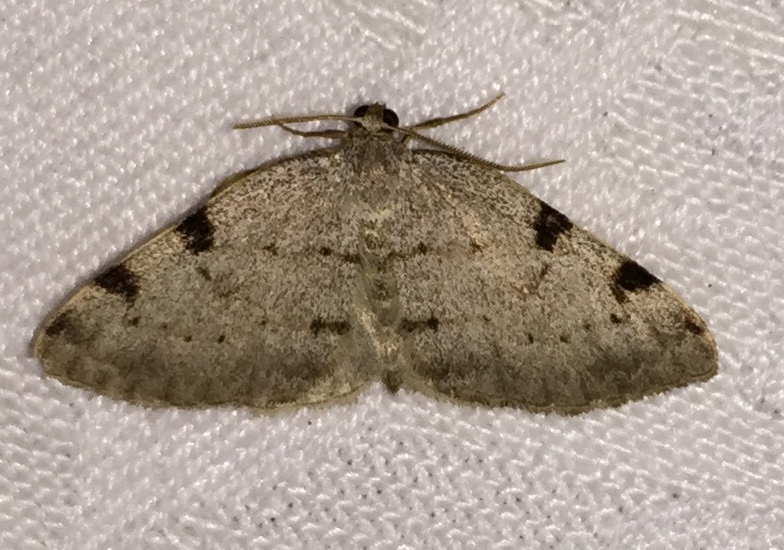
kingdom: Animalia
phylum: Arthropoda
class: Insecta
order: Lepidoptera
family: Geometridae
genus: Heterophleps
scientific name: Heterophleps refusaria
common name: Three-patched bigwing
